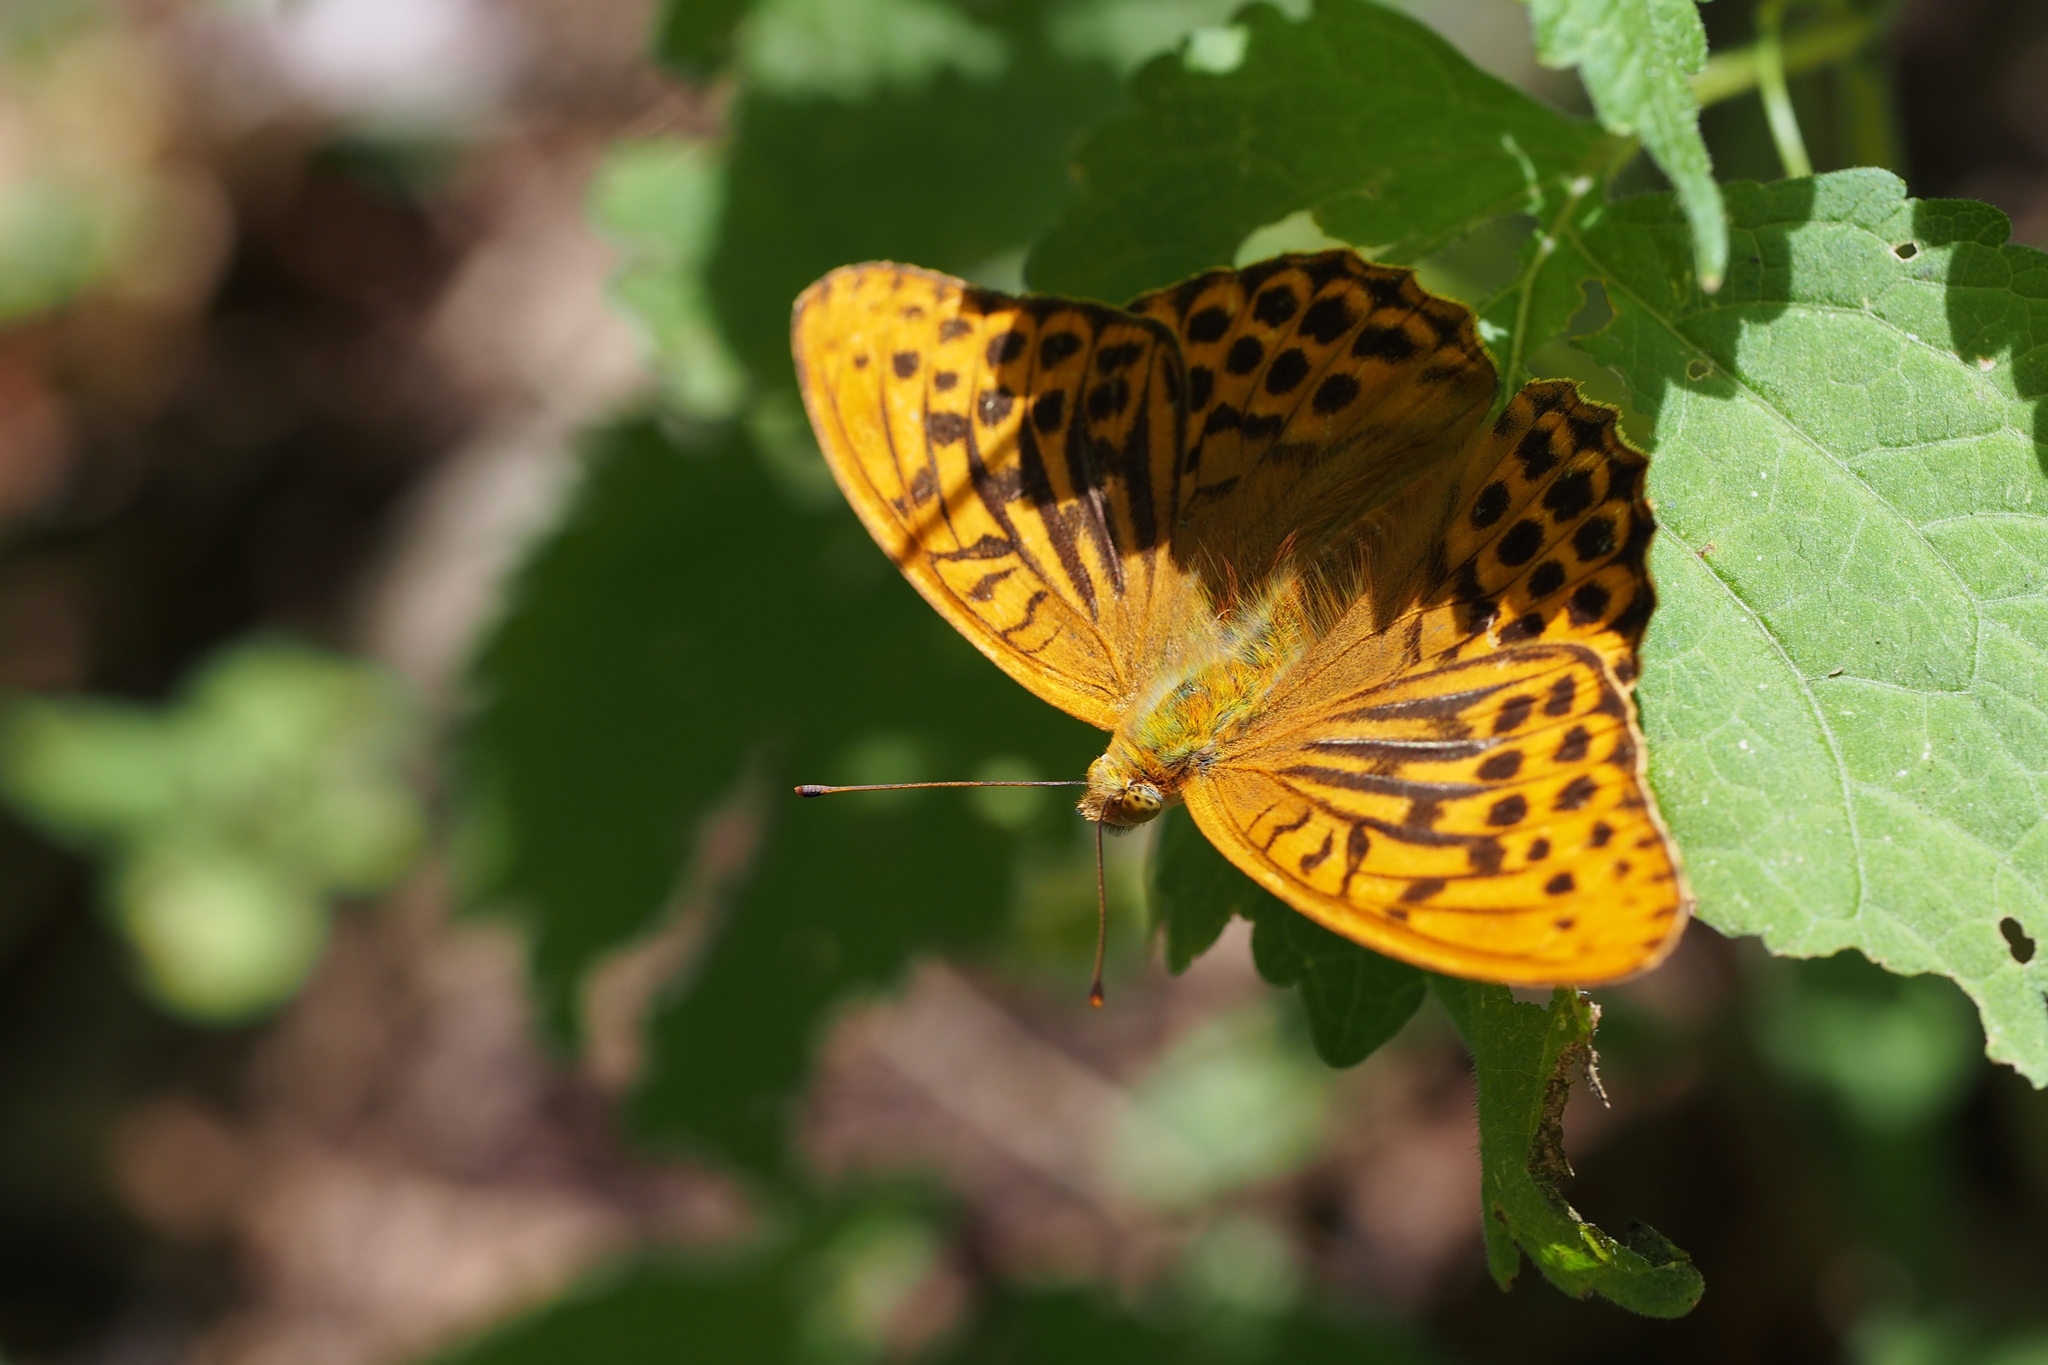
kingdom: Animalia
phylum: Arthropoda
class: Insecta
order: Lepidoptera
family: Nymphalidae
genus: Argynnis
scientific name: Argynnis paphia
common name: Silver-washed fritillary
